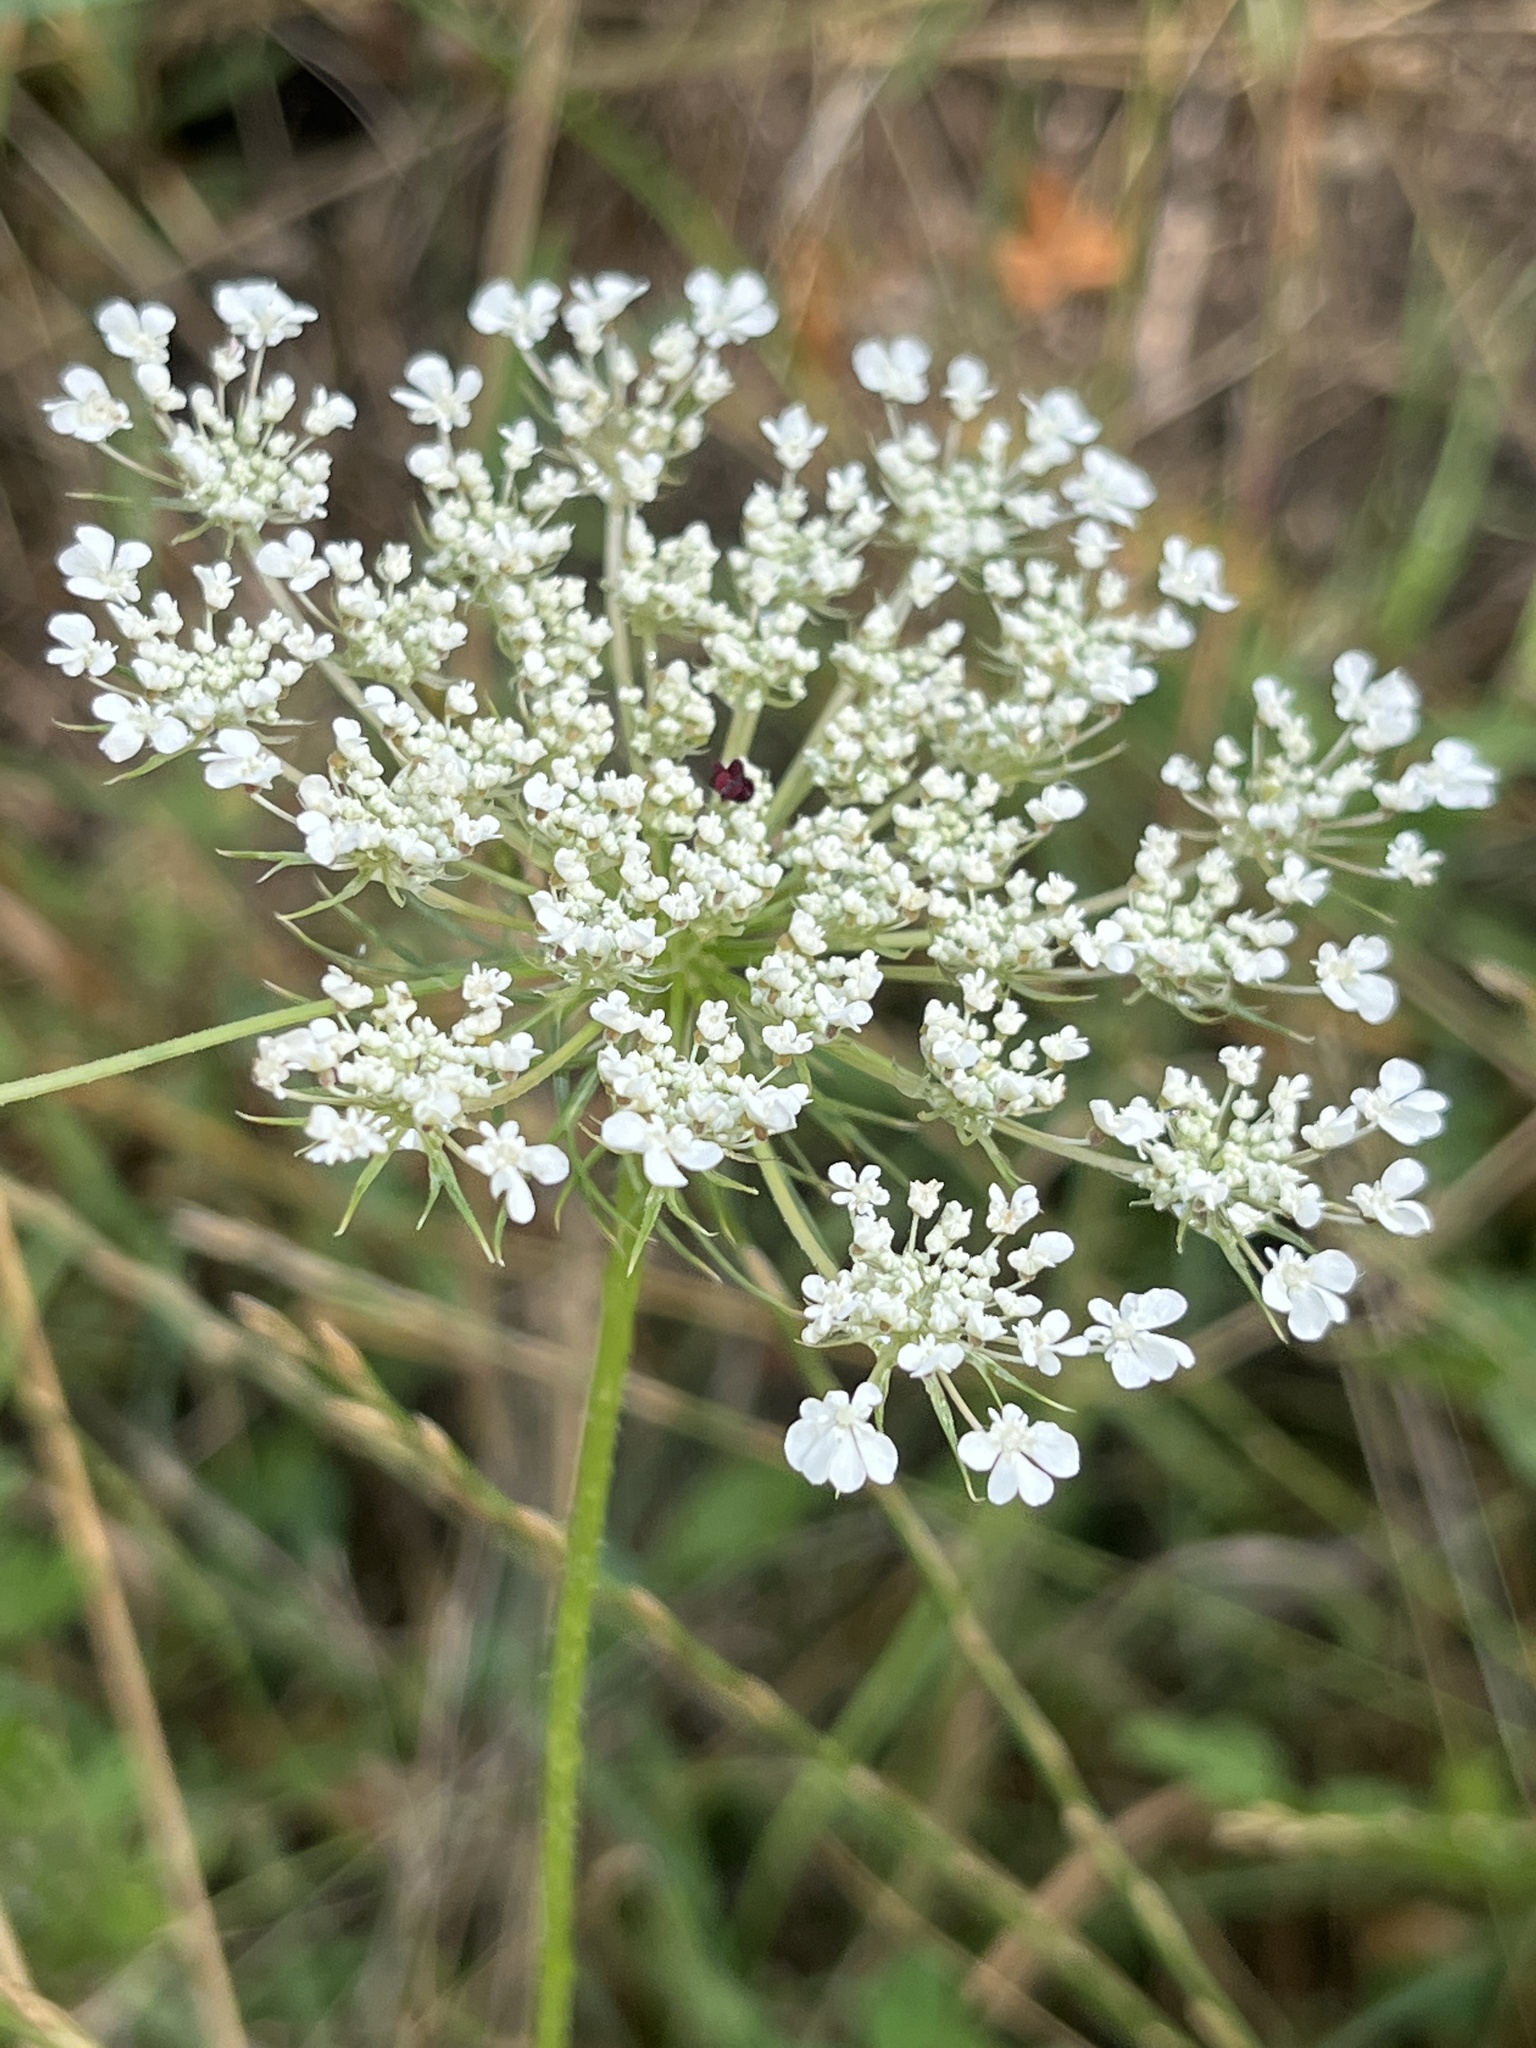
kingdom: Plantae
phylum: Tracheophyta
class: Magnoliopsida
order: Apiales
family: Apiaceae
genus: Daucus
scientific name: Daucus carota
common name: Wild carrot
